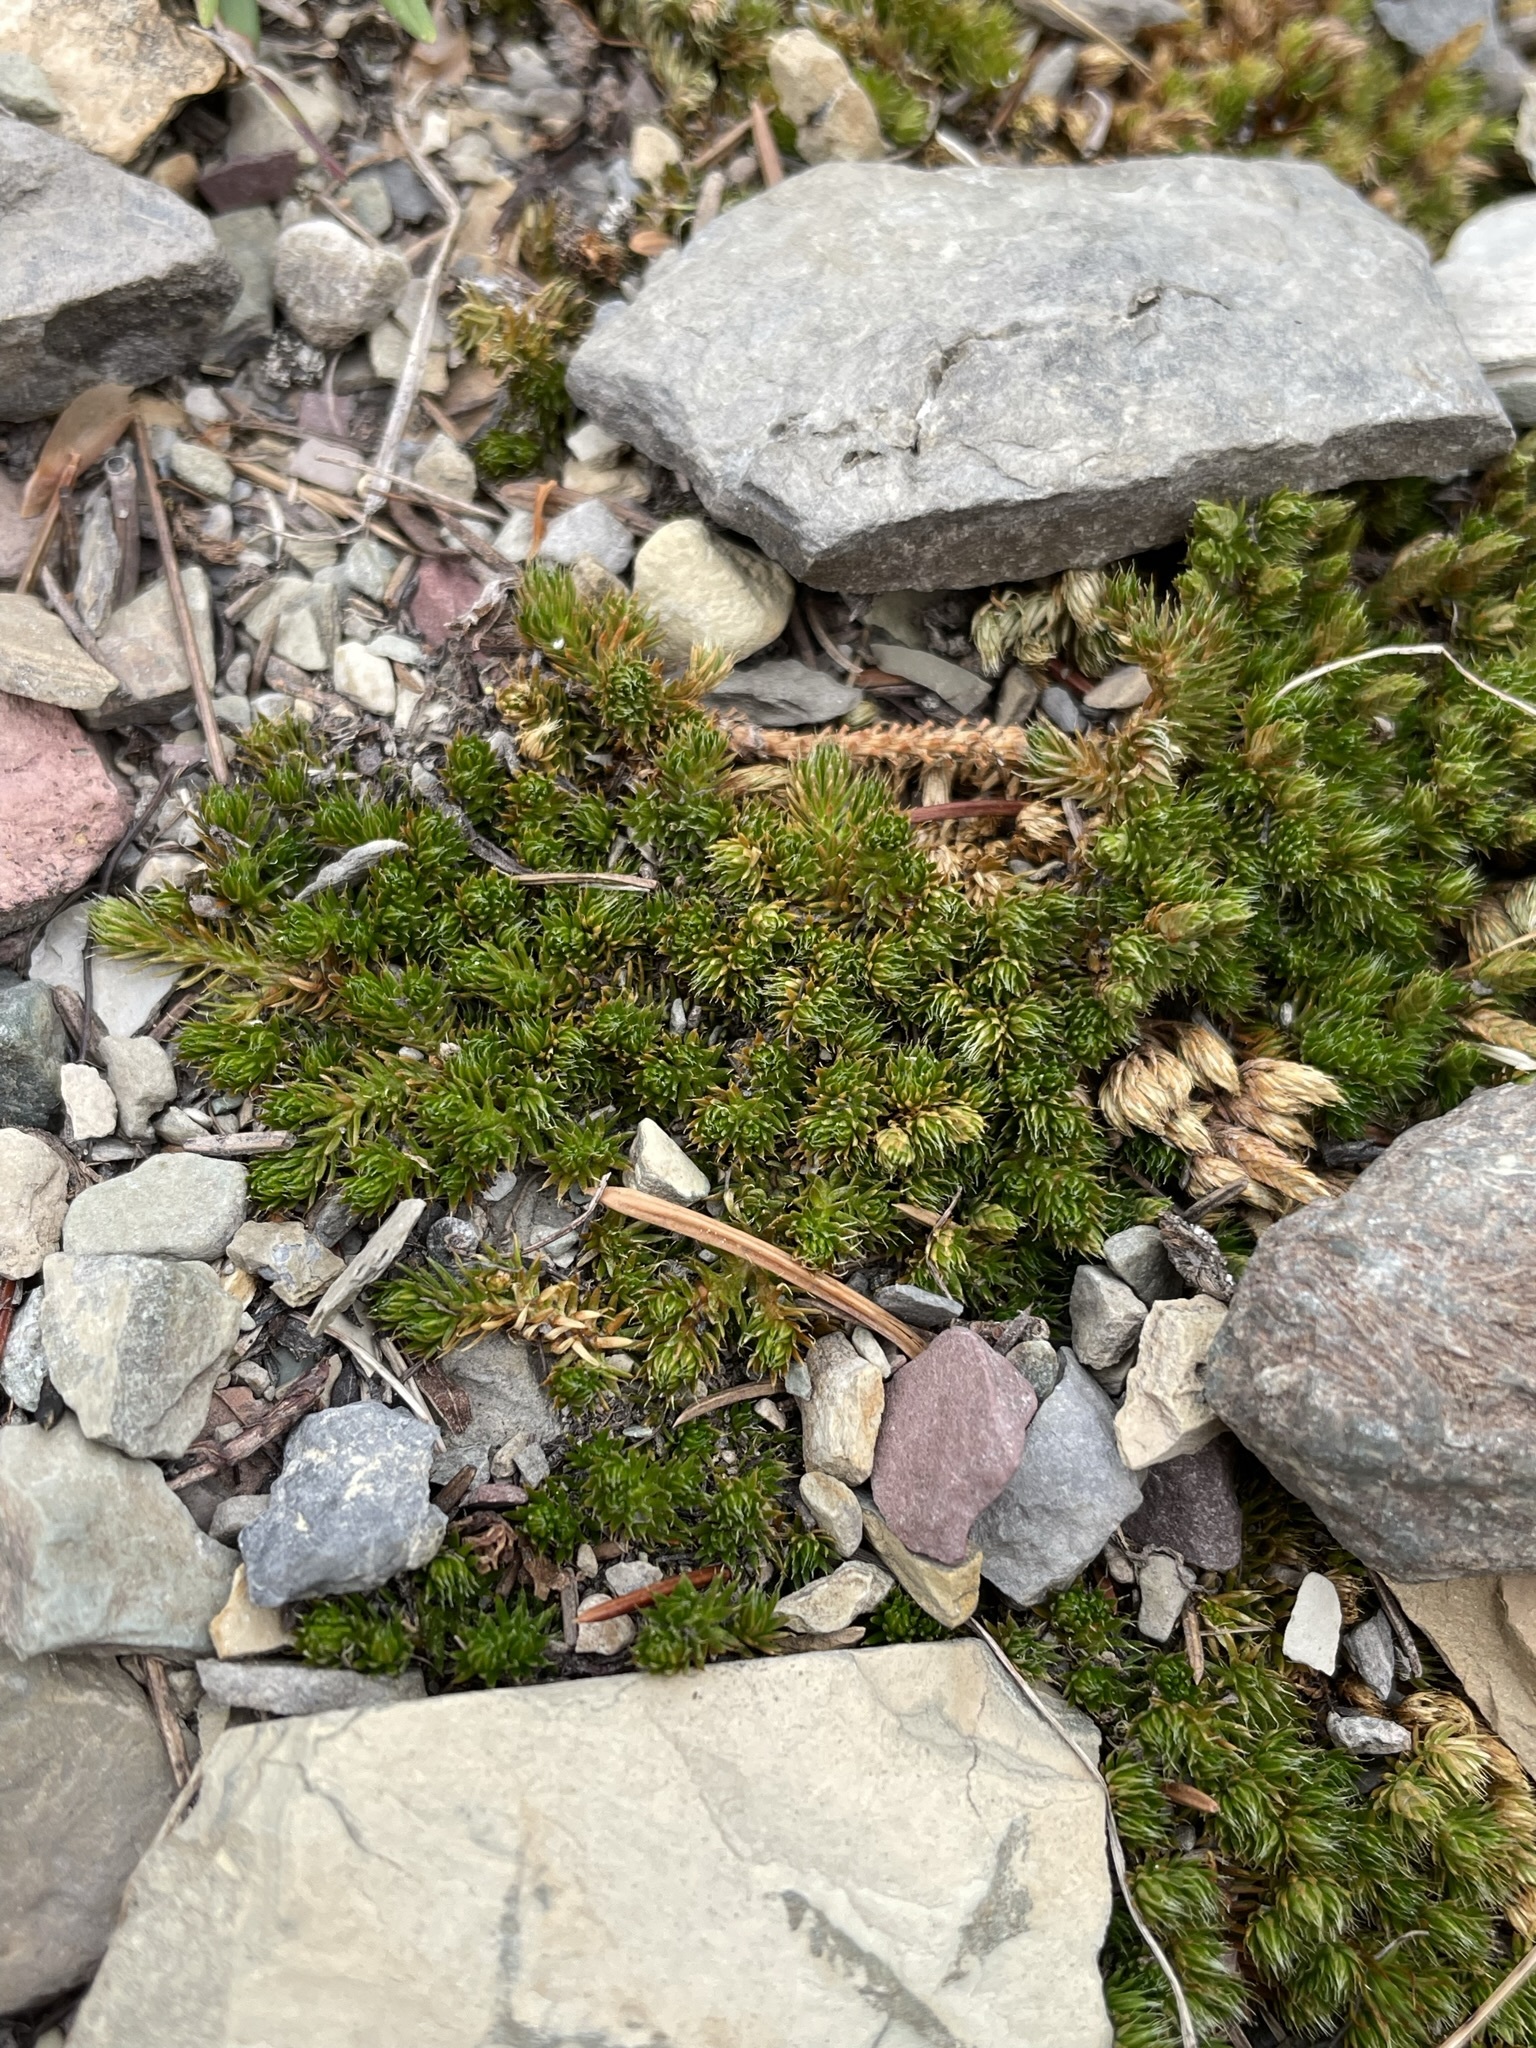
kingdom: Plantae
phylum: Tracheophyta
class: Lycopodiopsida
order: Selaginellales
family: Selaginellaceae
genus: Selaginella
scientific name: Selaginella densa
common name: Mountain spike-moss
